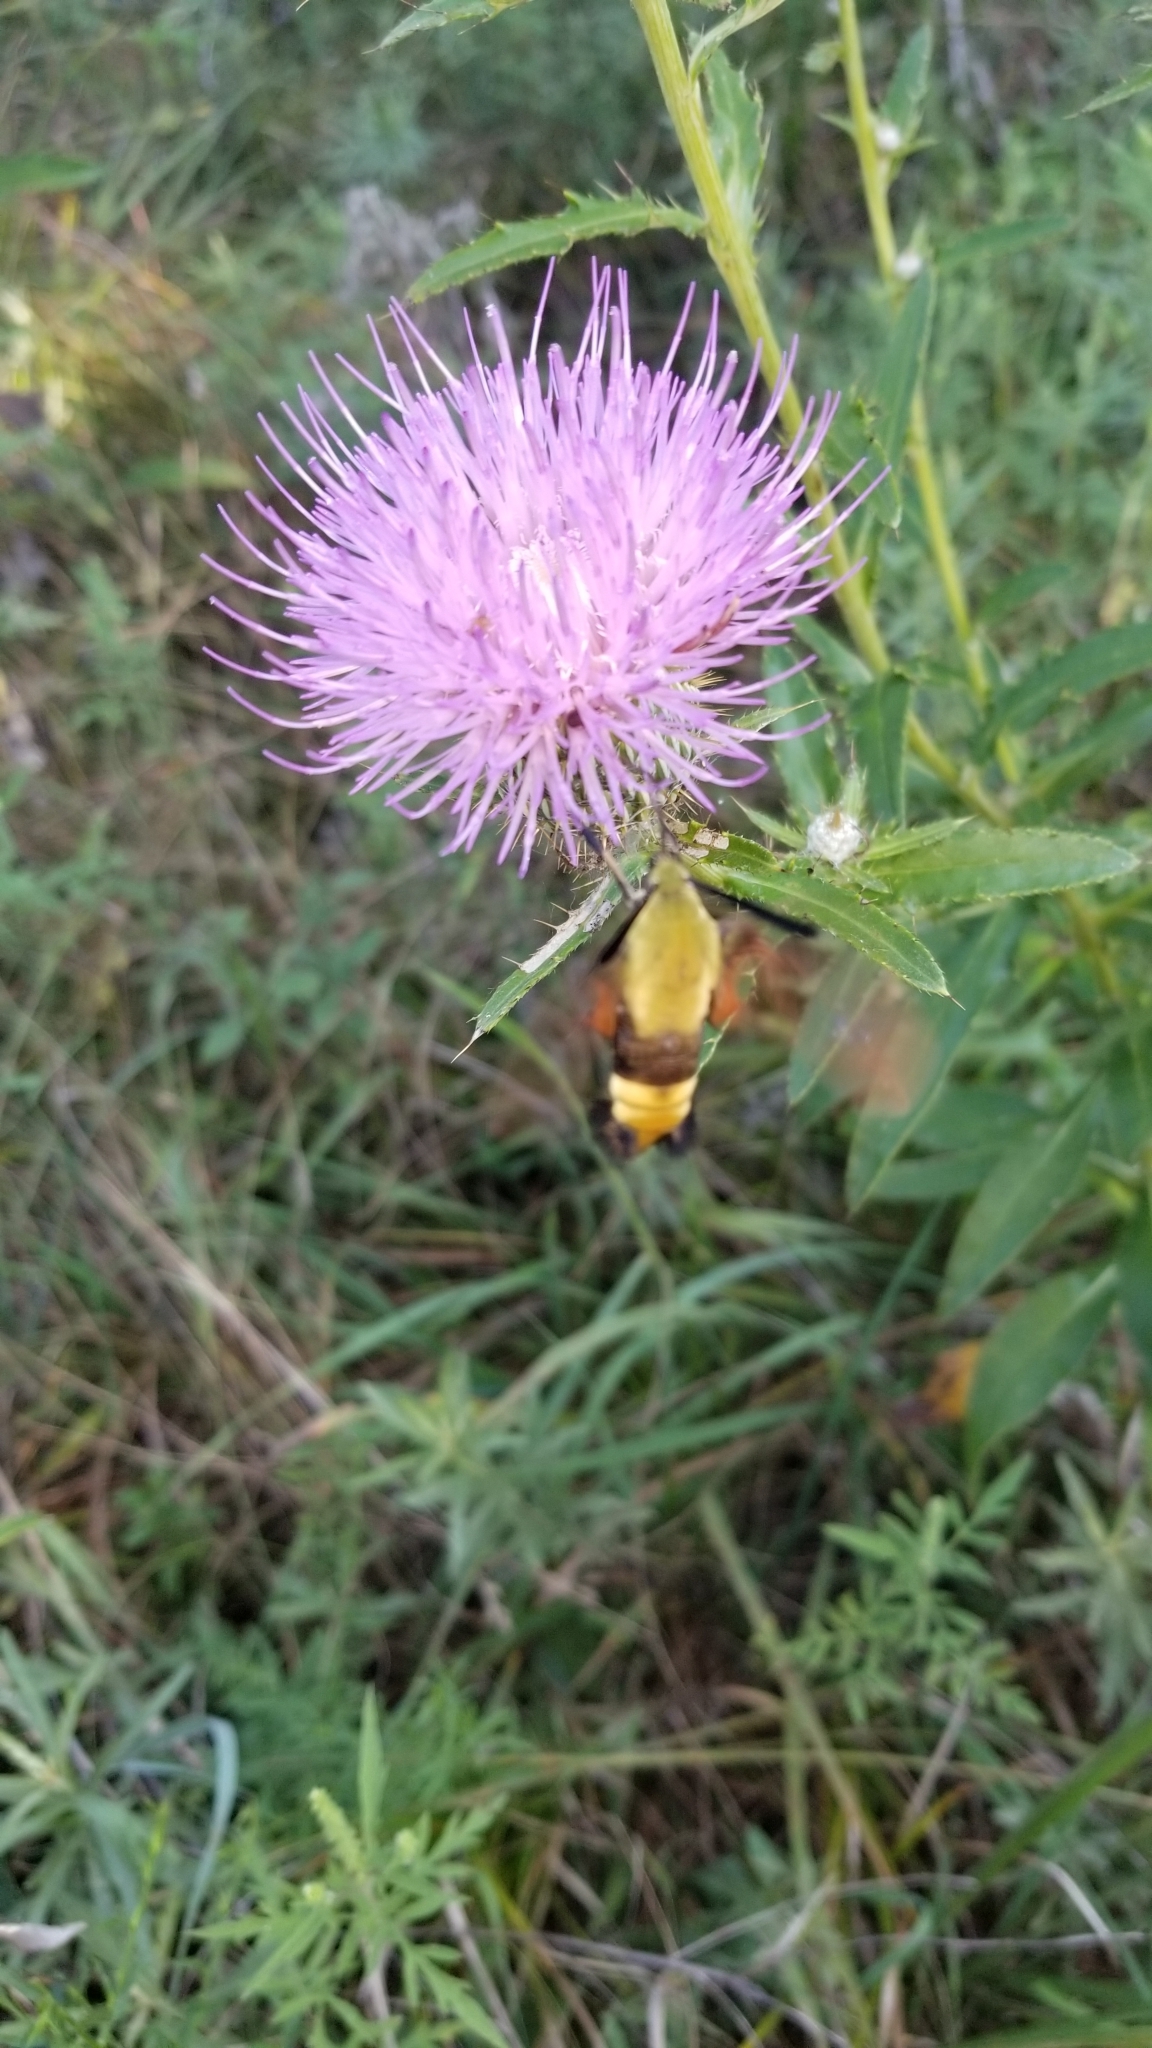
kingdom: Animalia
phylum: Arthropoda
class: Insecta
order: Lepidoptera
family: Sphingidae
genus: Hemaris
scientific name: Hemaris thysbe
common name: Common clear-wing
